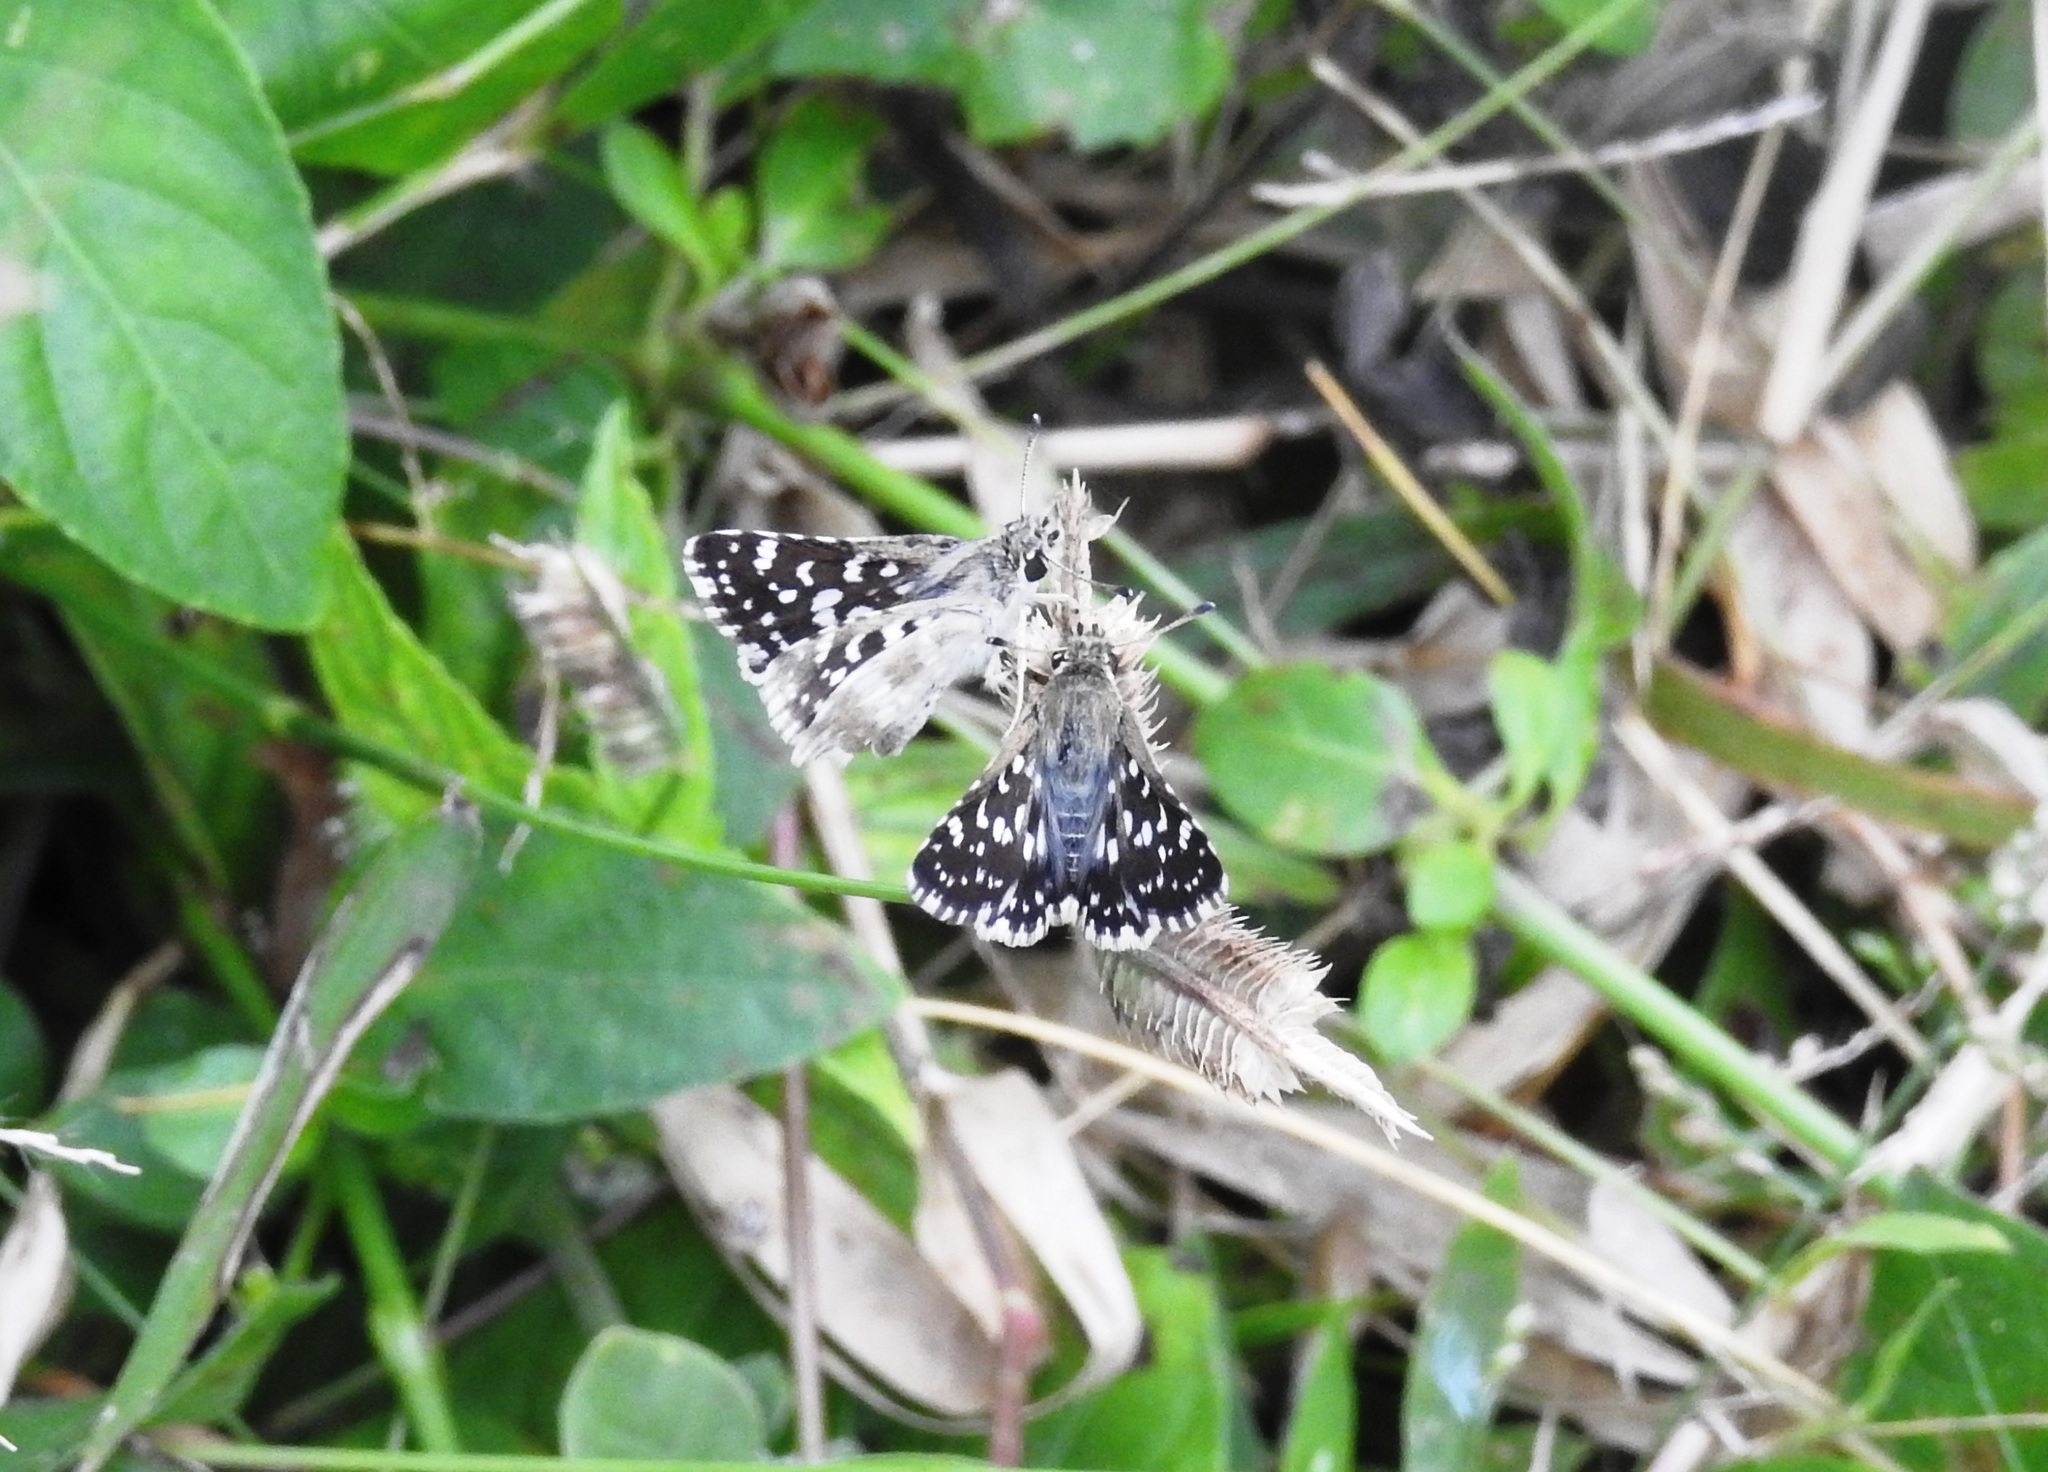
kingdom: Animalia
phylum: Arthropoda
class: Insecta
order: Lepidoptera
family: Hesperiidae
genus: Spialia
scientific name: Spialia galba
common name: Indian skipper
